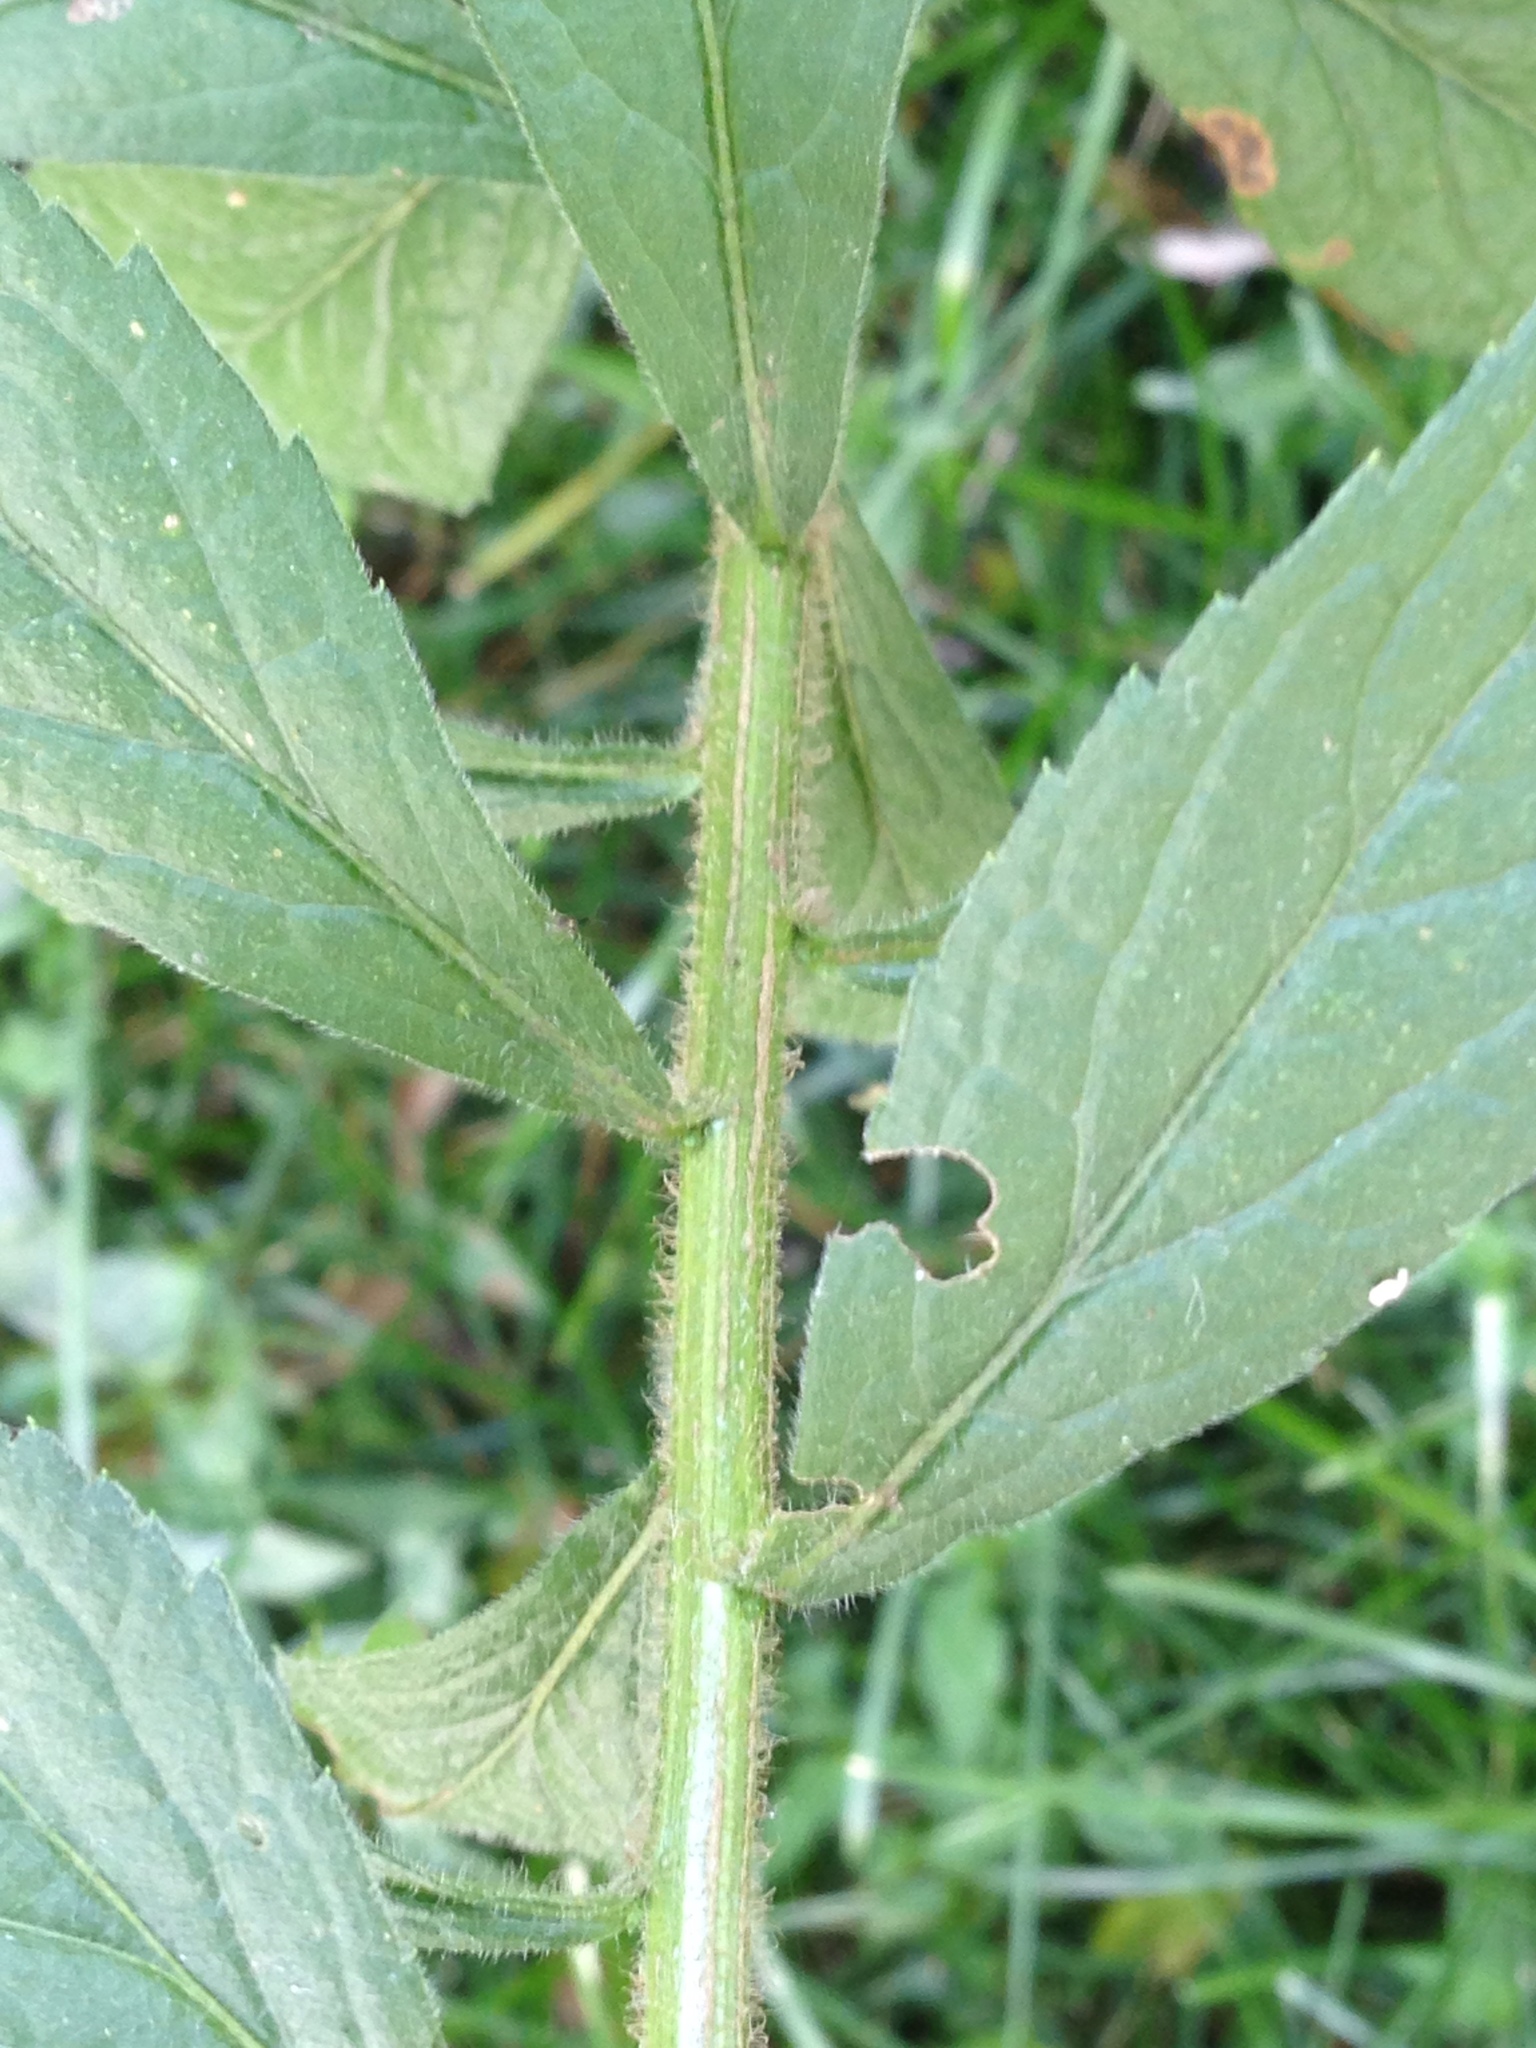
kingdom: Plantae
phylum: Tracheophyta
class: Magnoliopsida
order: Asterales
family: Asteraceae
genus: Solidago
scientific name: Solidago rugosa
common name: Rough-stemmed goldenrod
